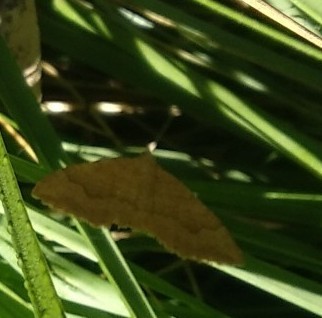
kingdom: Animalia
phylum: Arthropoda
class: Insecta
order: Lepidoptera
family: Geometridae
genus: Camptogramma
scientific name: Camptogramma bilineata
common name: Yellow shell
